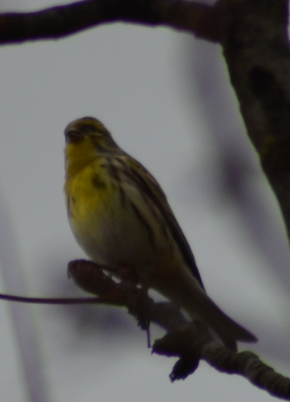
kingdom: Animalia
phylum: Chordata
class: Aves
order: Passeriformes
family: Fringillidae
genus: Serinus
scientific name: Serinus serinus
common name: European serin
